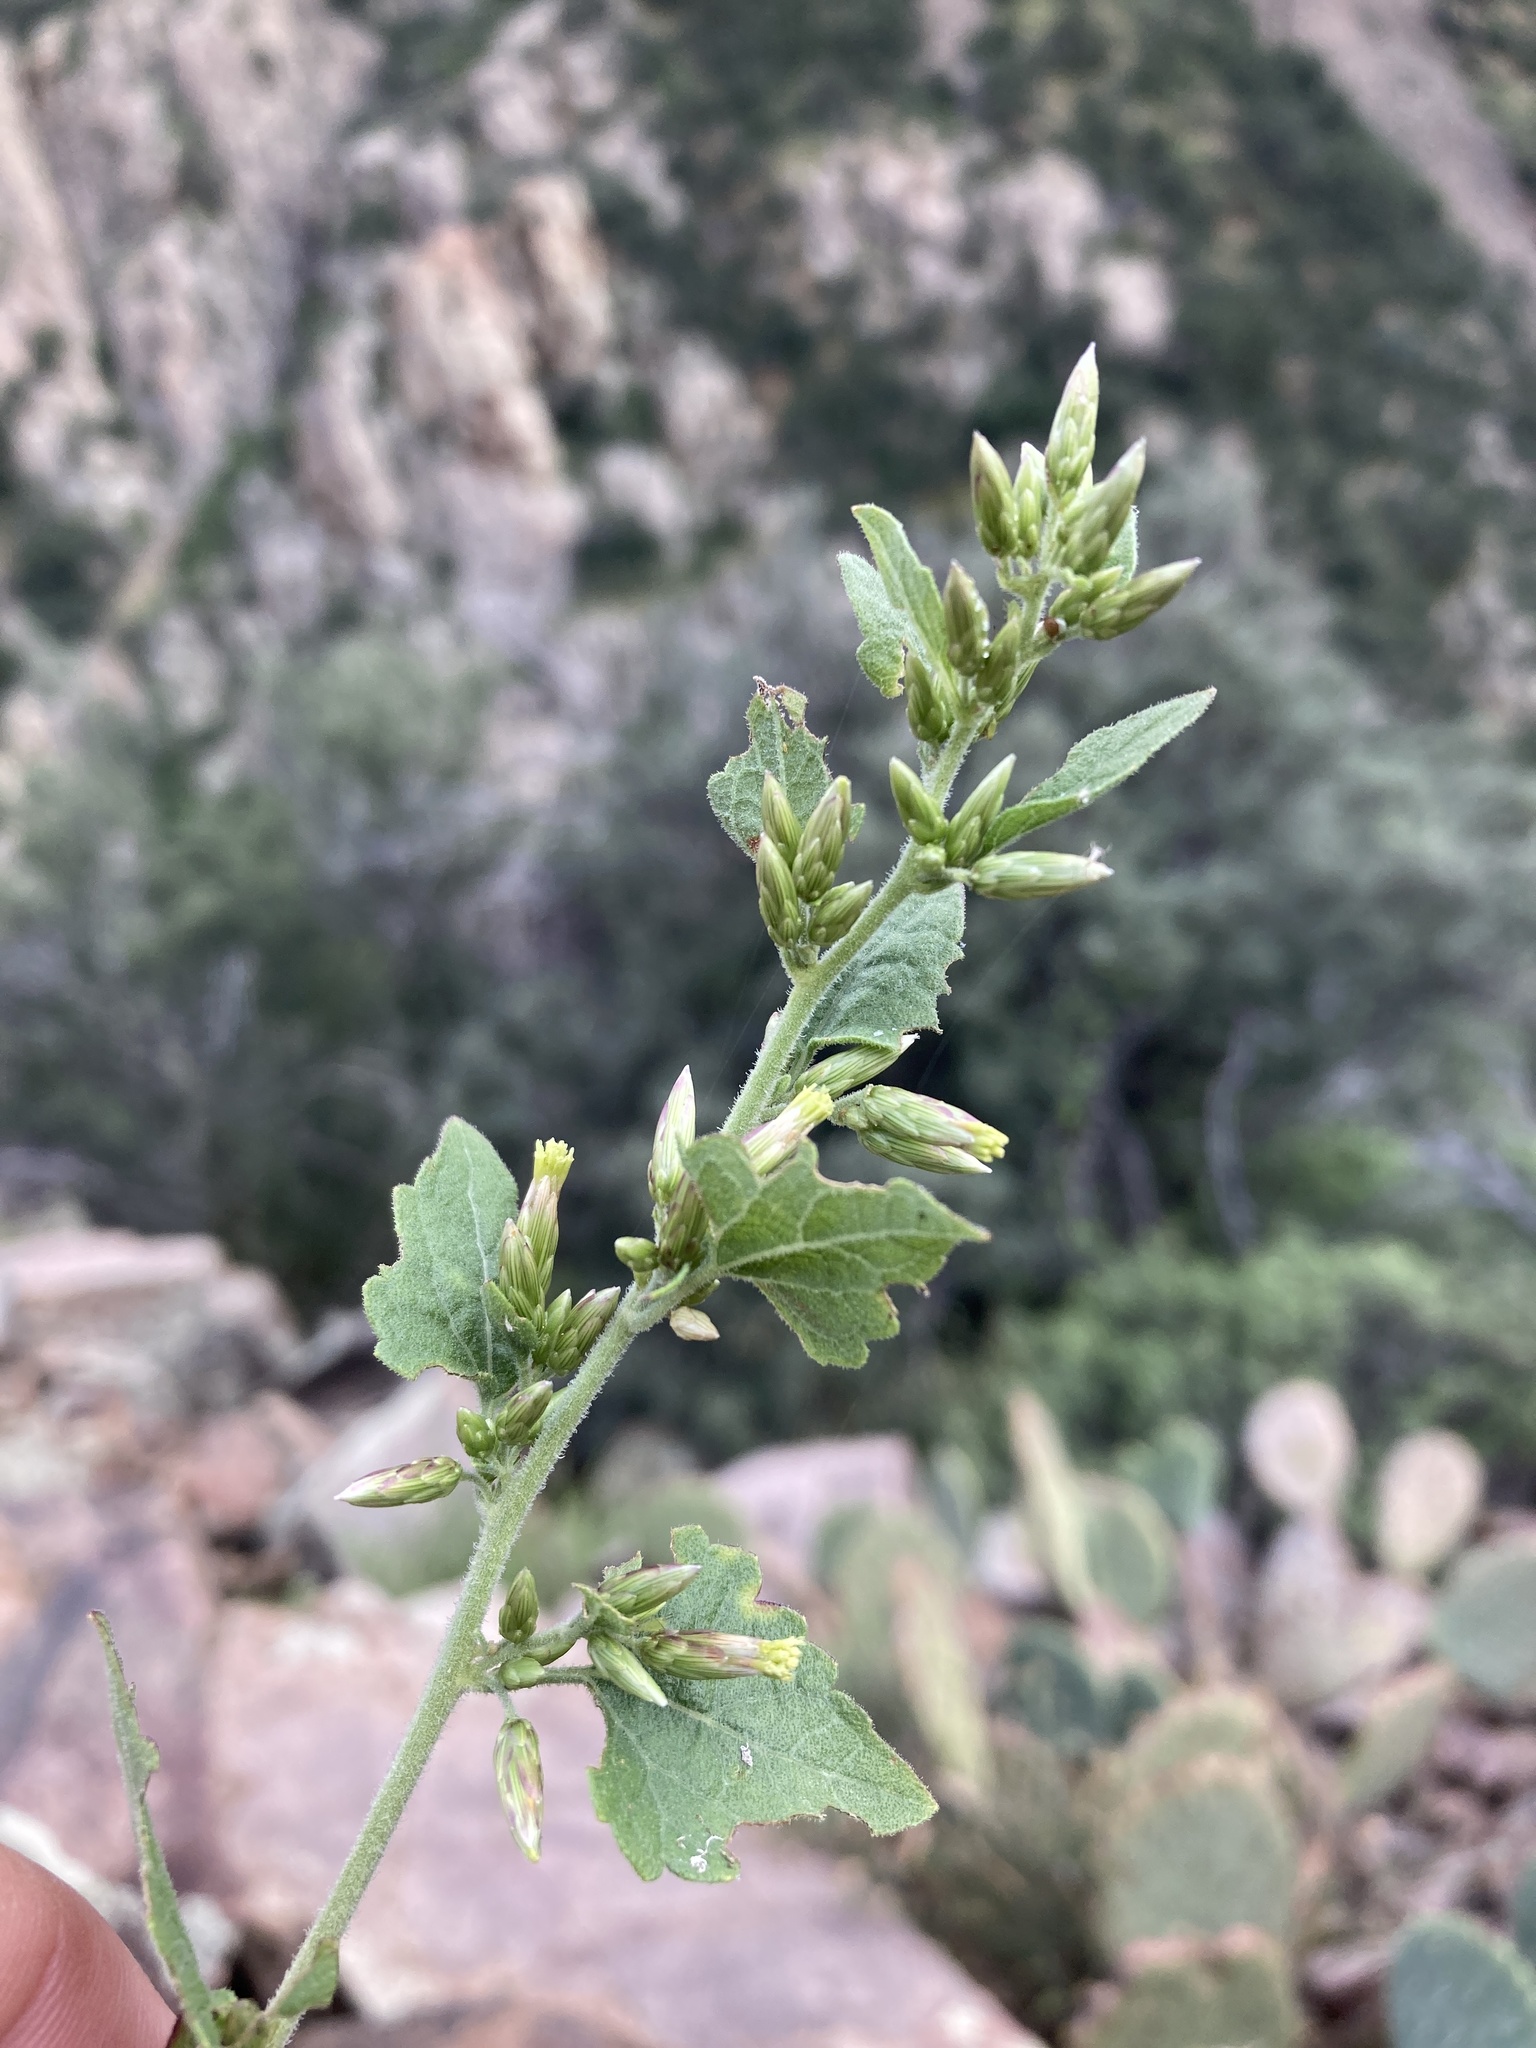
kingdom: Plantae
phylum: Tracheophyta
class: Magnoliopsida
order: Asterales
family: Asteraceae
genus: Brickellia
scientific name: Brickellia californica
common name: California brickellbush
